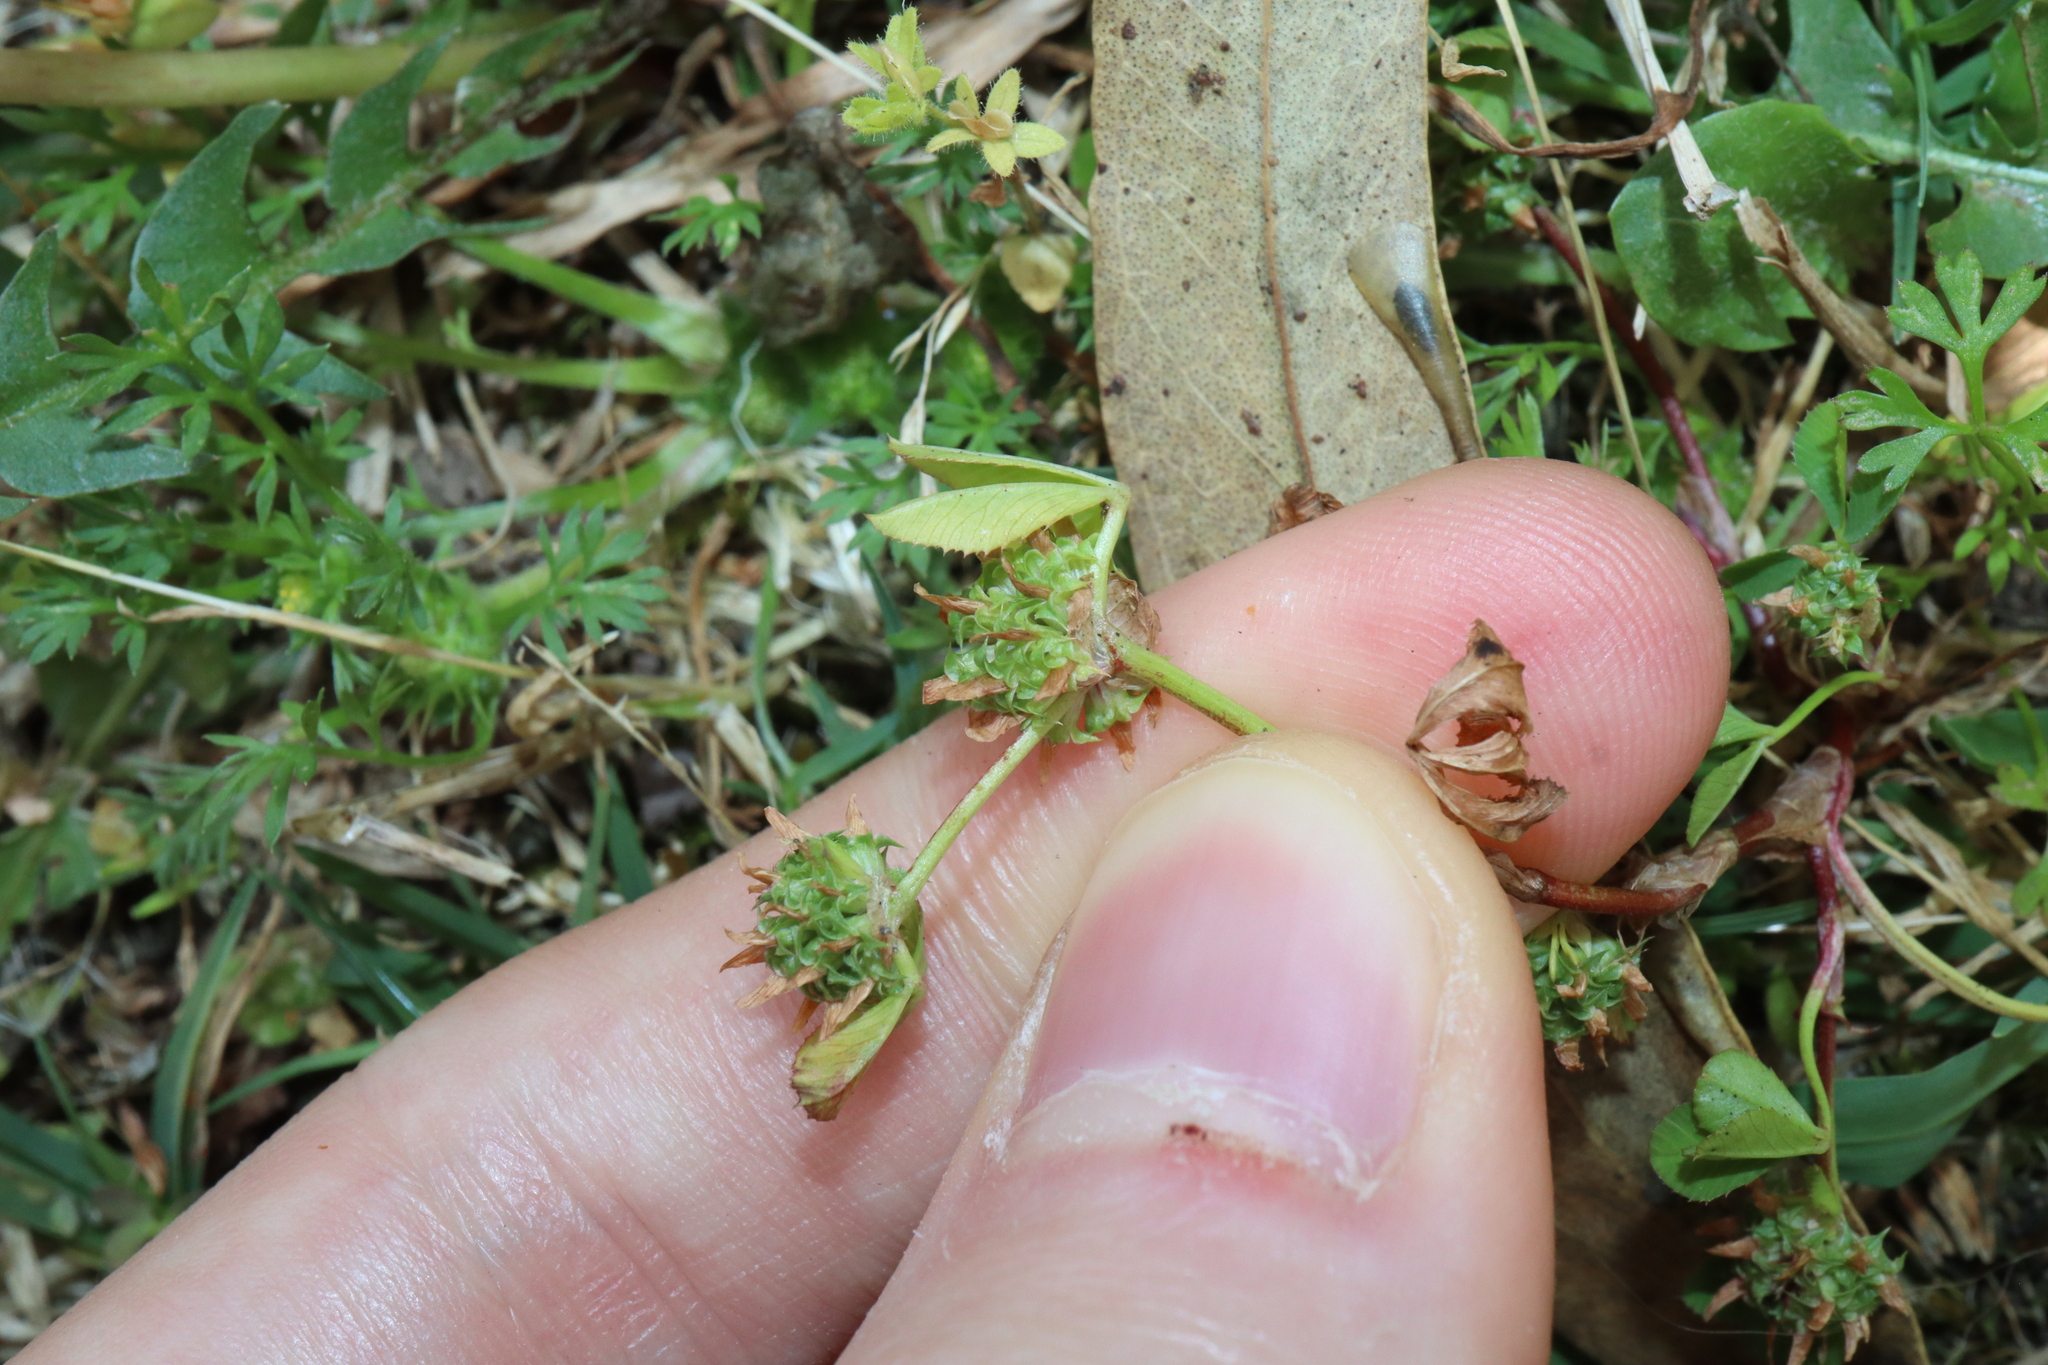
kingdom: Plantae
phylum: Tracheophyta
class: Magnoliopsida
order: Fabales
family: Fabaceae
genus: Trifolium
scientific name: Trifolium glomeratum
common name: Clustered clover
